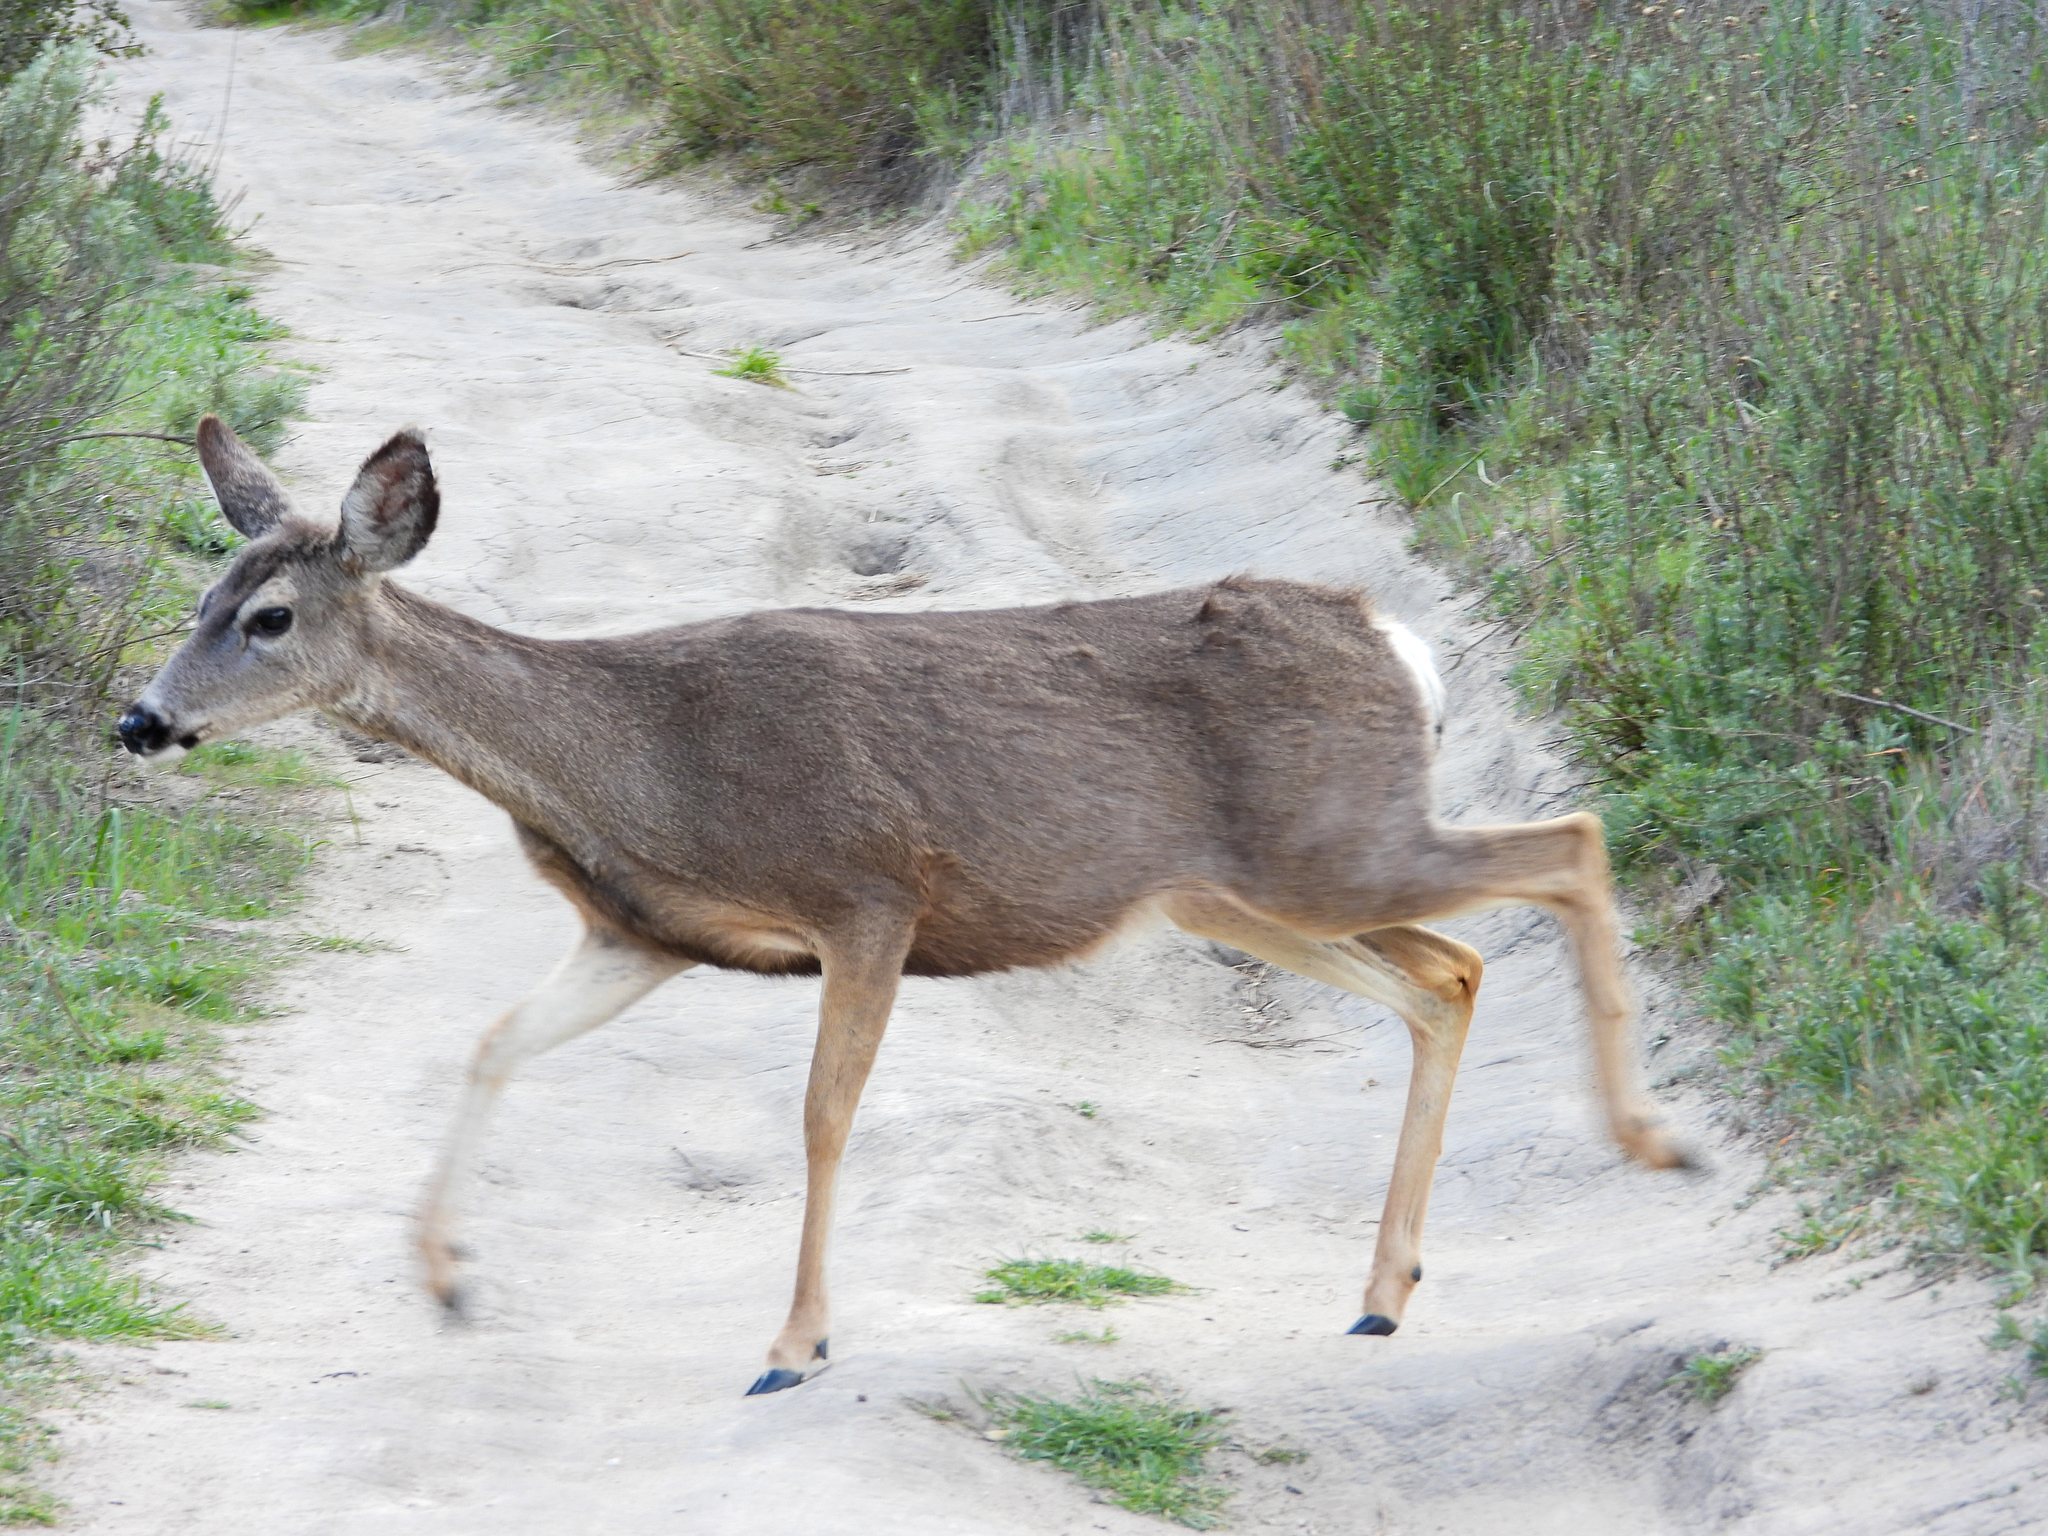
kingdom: Animalia
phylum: Chordata
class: Mammalia
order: Artiodactyla
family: Cervidae
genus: Odocoileus
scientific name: Odocoileus hemionus
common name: Mule deer
